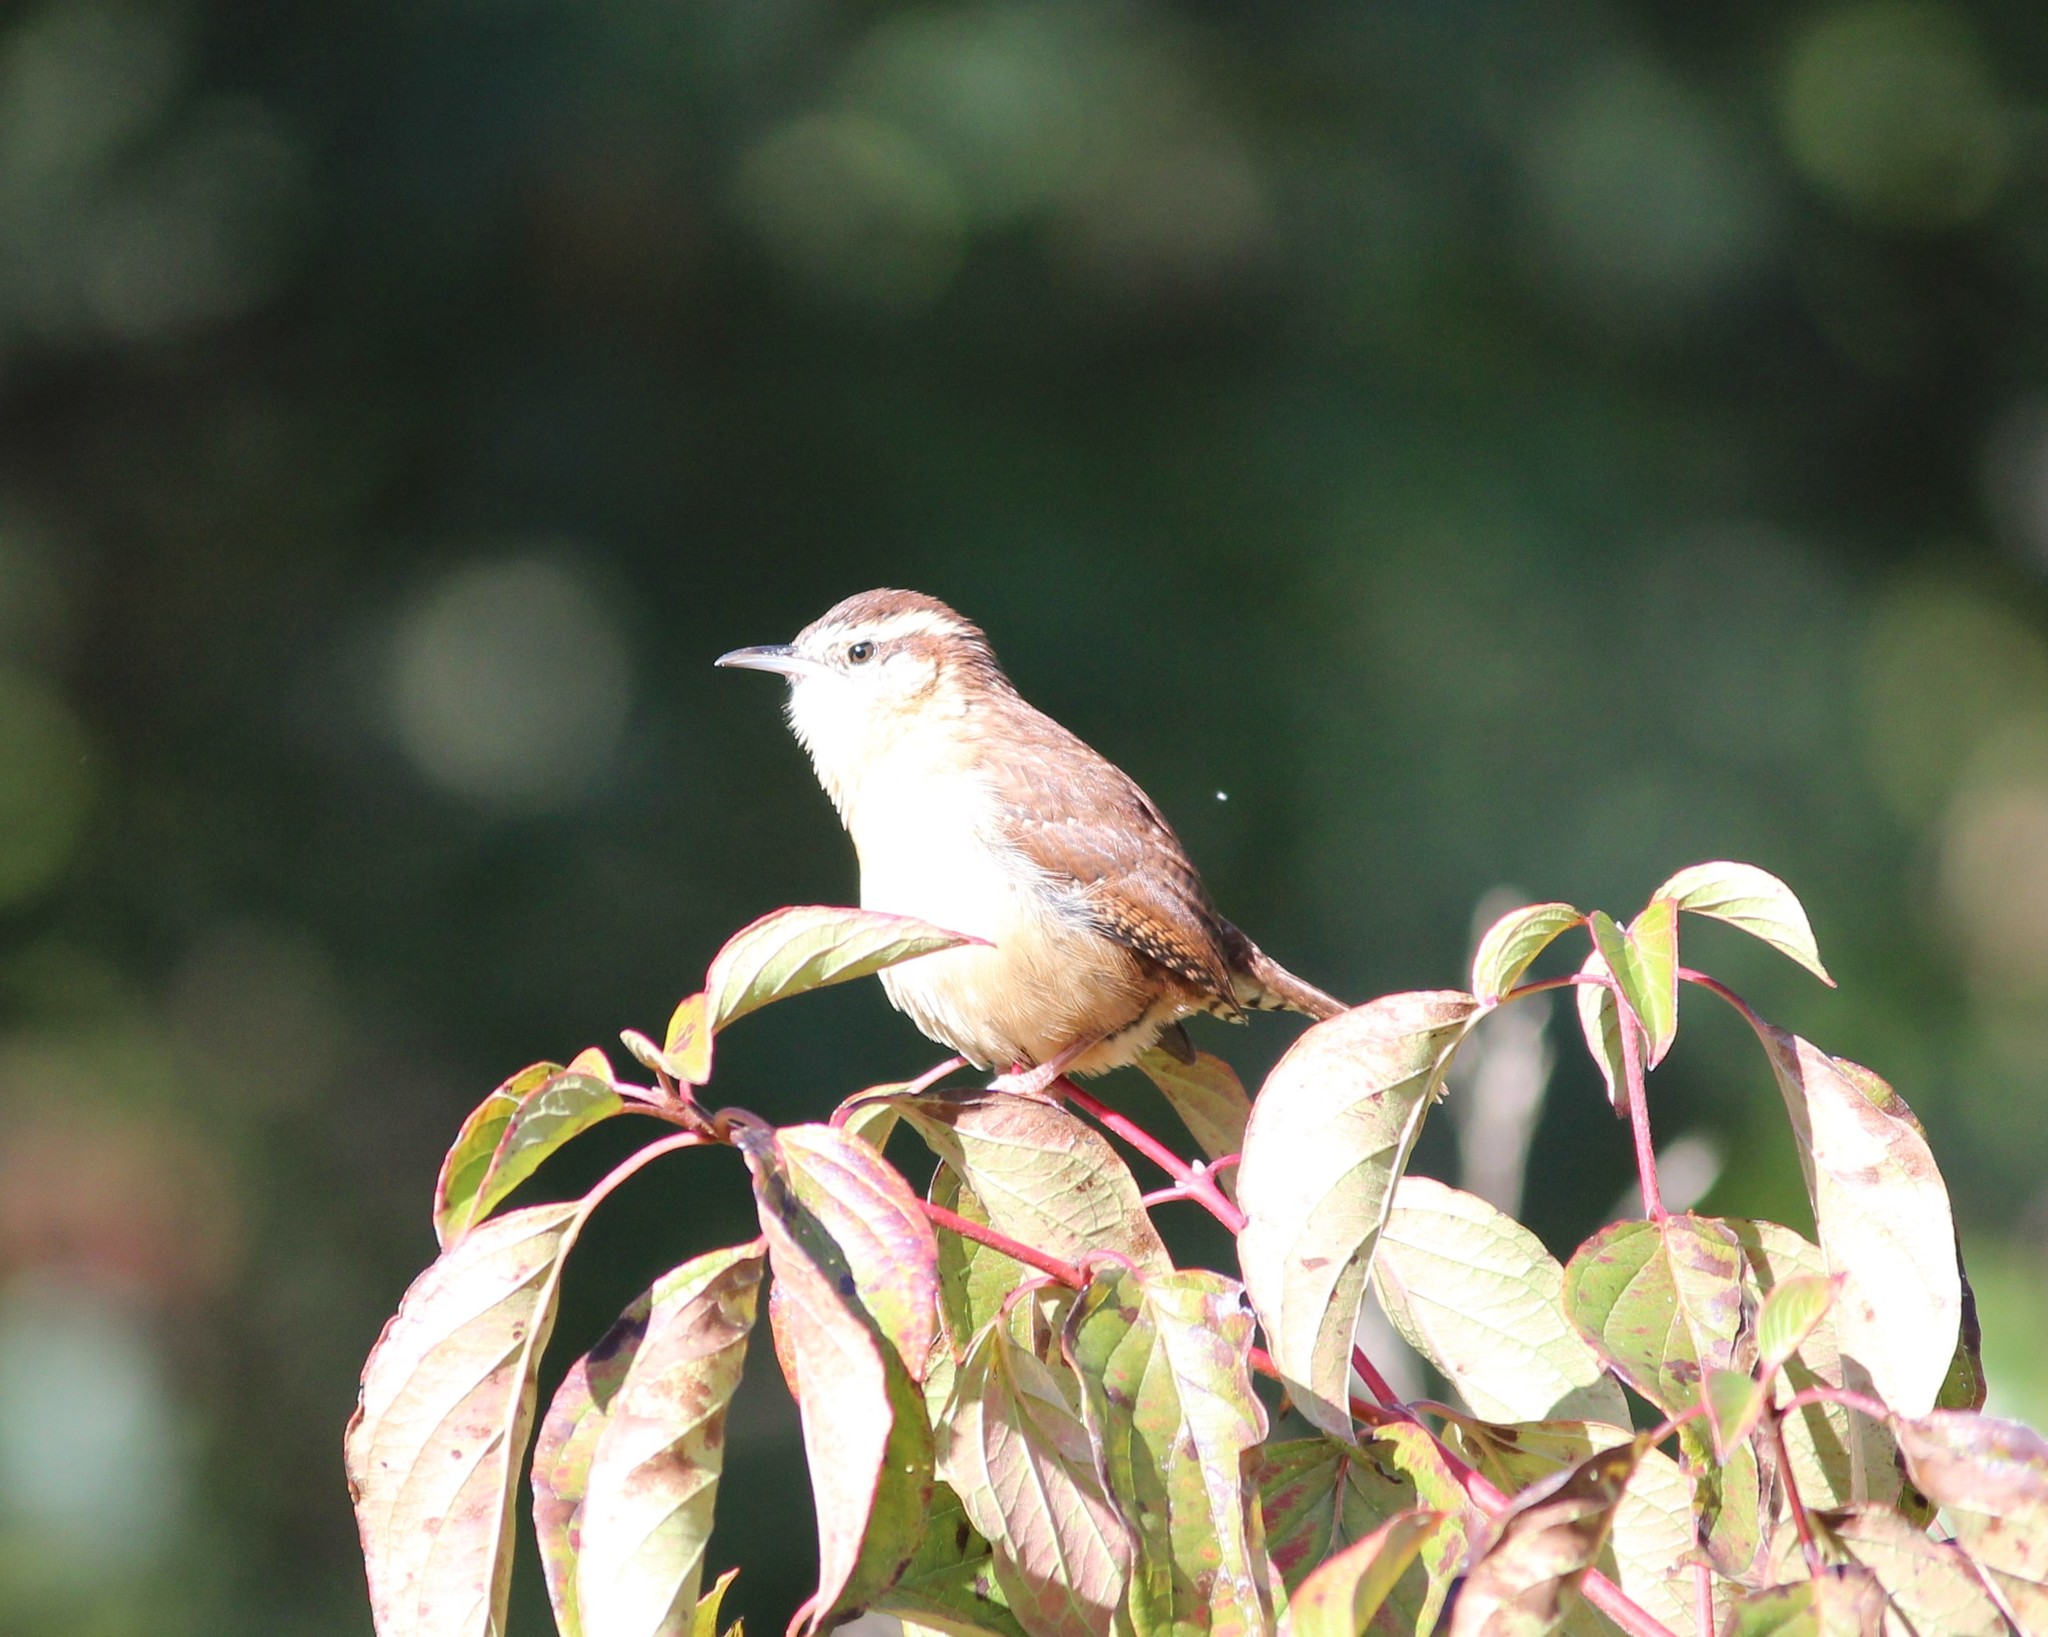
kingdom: Animalia
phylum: Chordata
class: Aves
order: Passeriformes
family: Troglodytidae
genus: Thryothorus
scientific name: Thryothorus ludovicianus
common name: Carolina wren
